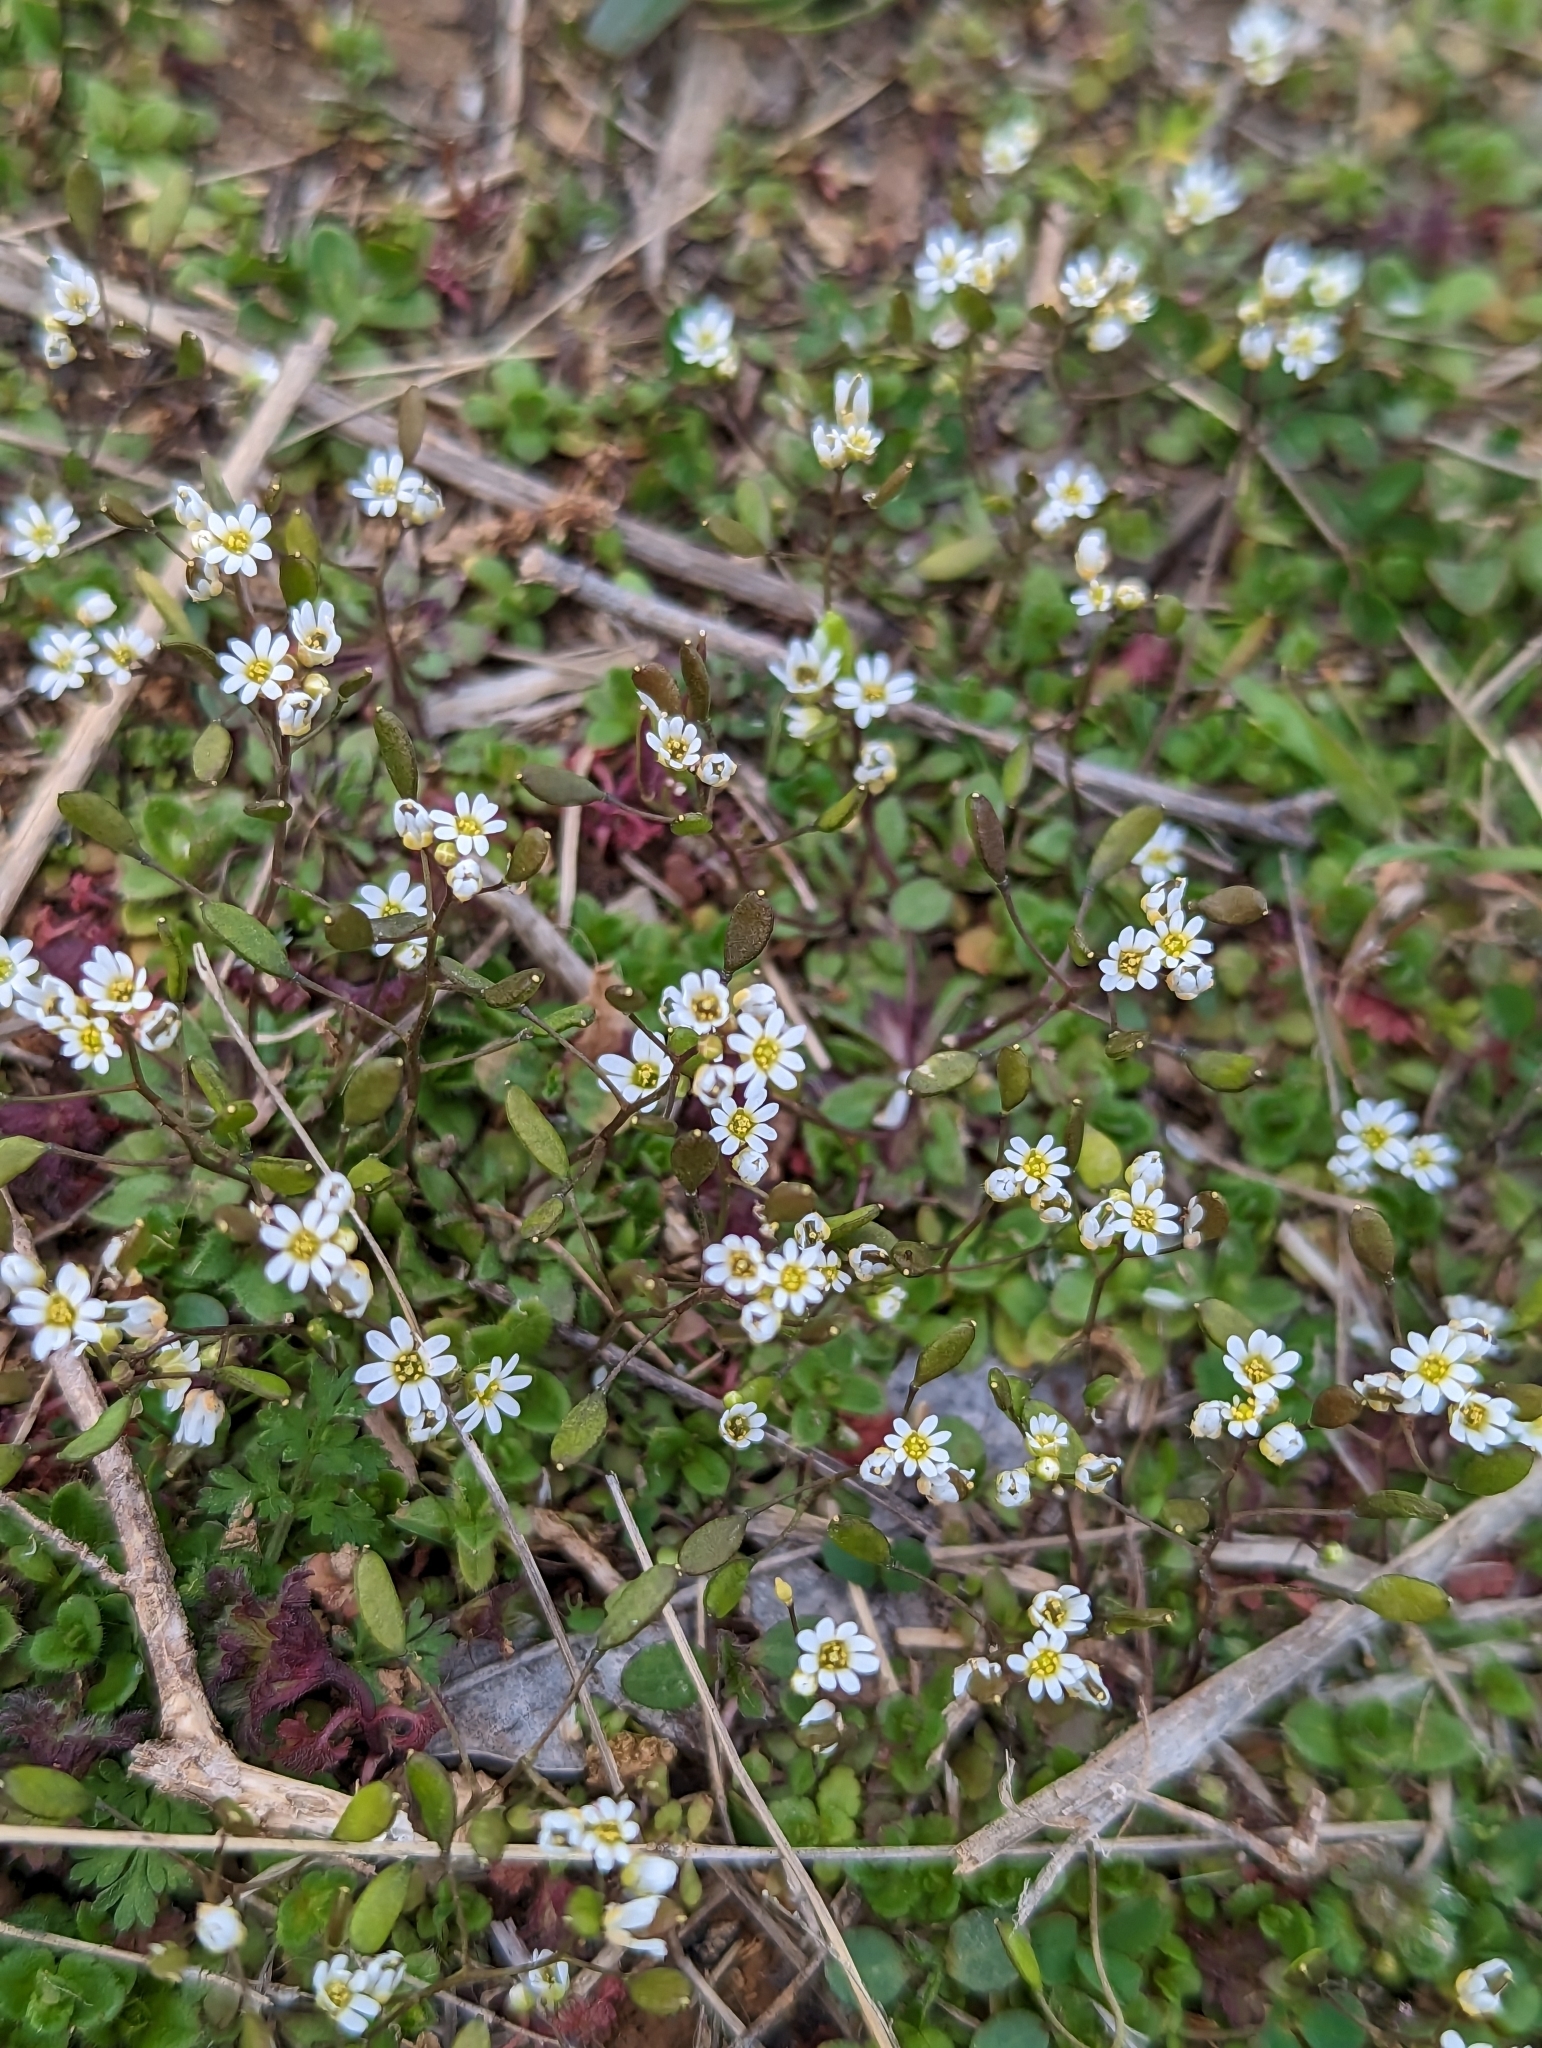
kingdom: Plantae
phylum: Tracheophyta
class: Magnoliopsida
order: Brassicales
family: Brassicaceae
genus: Draba
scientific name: Draba verna
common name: Spring draba
